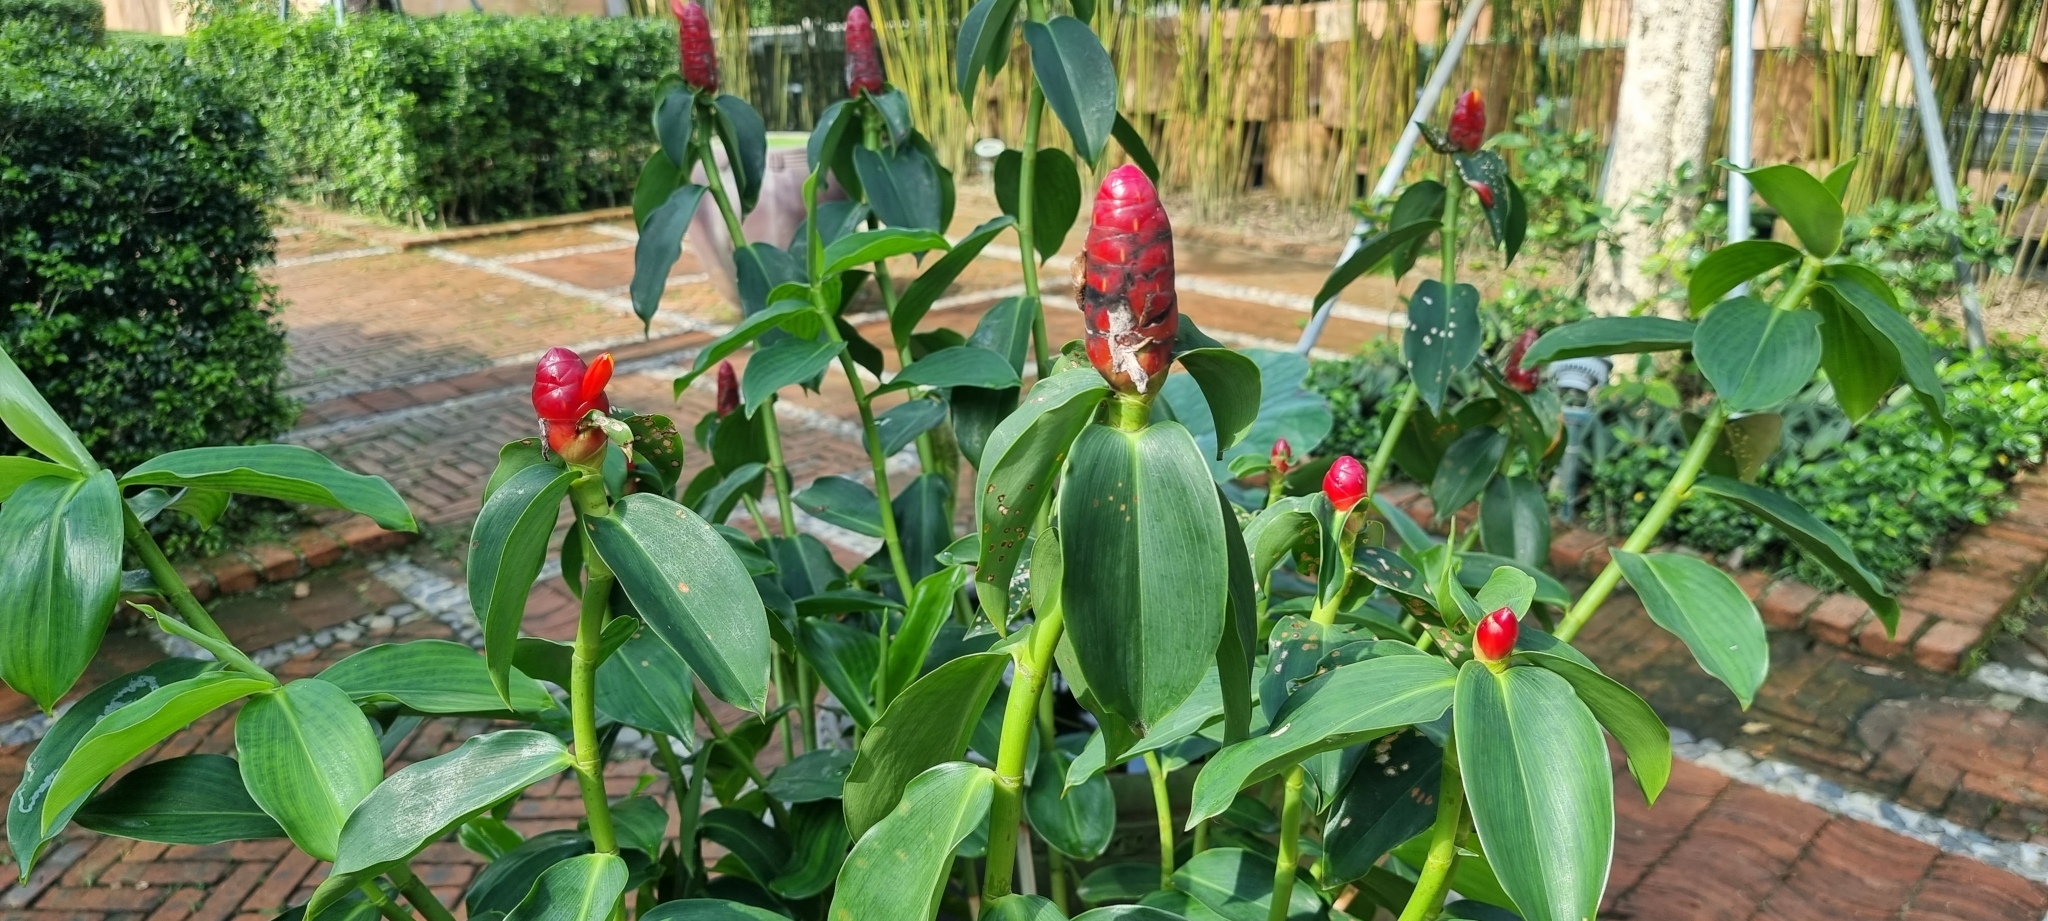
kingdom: Plantae
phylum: Tracheophyta
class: Liliopsida
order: Zingiberales
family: Costaceae
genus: Costus
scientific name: Costus woodsonii
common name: Scarlet spiral-ginger
